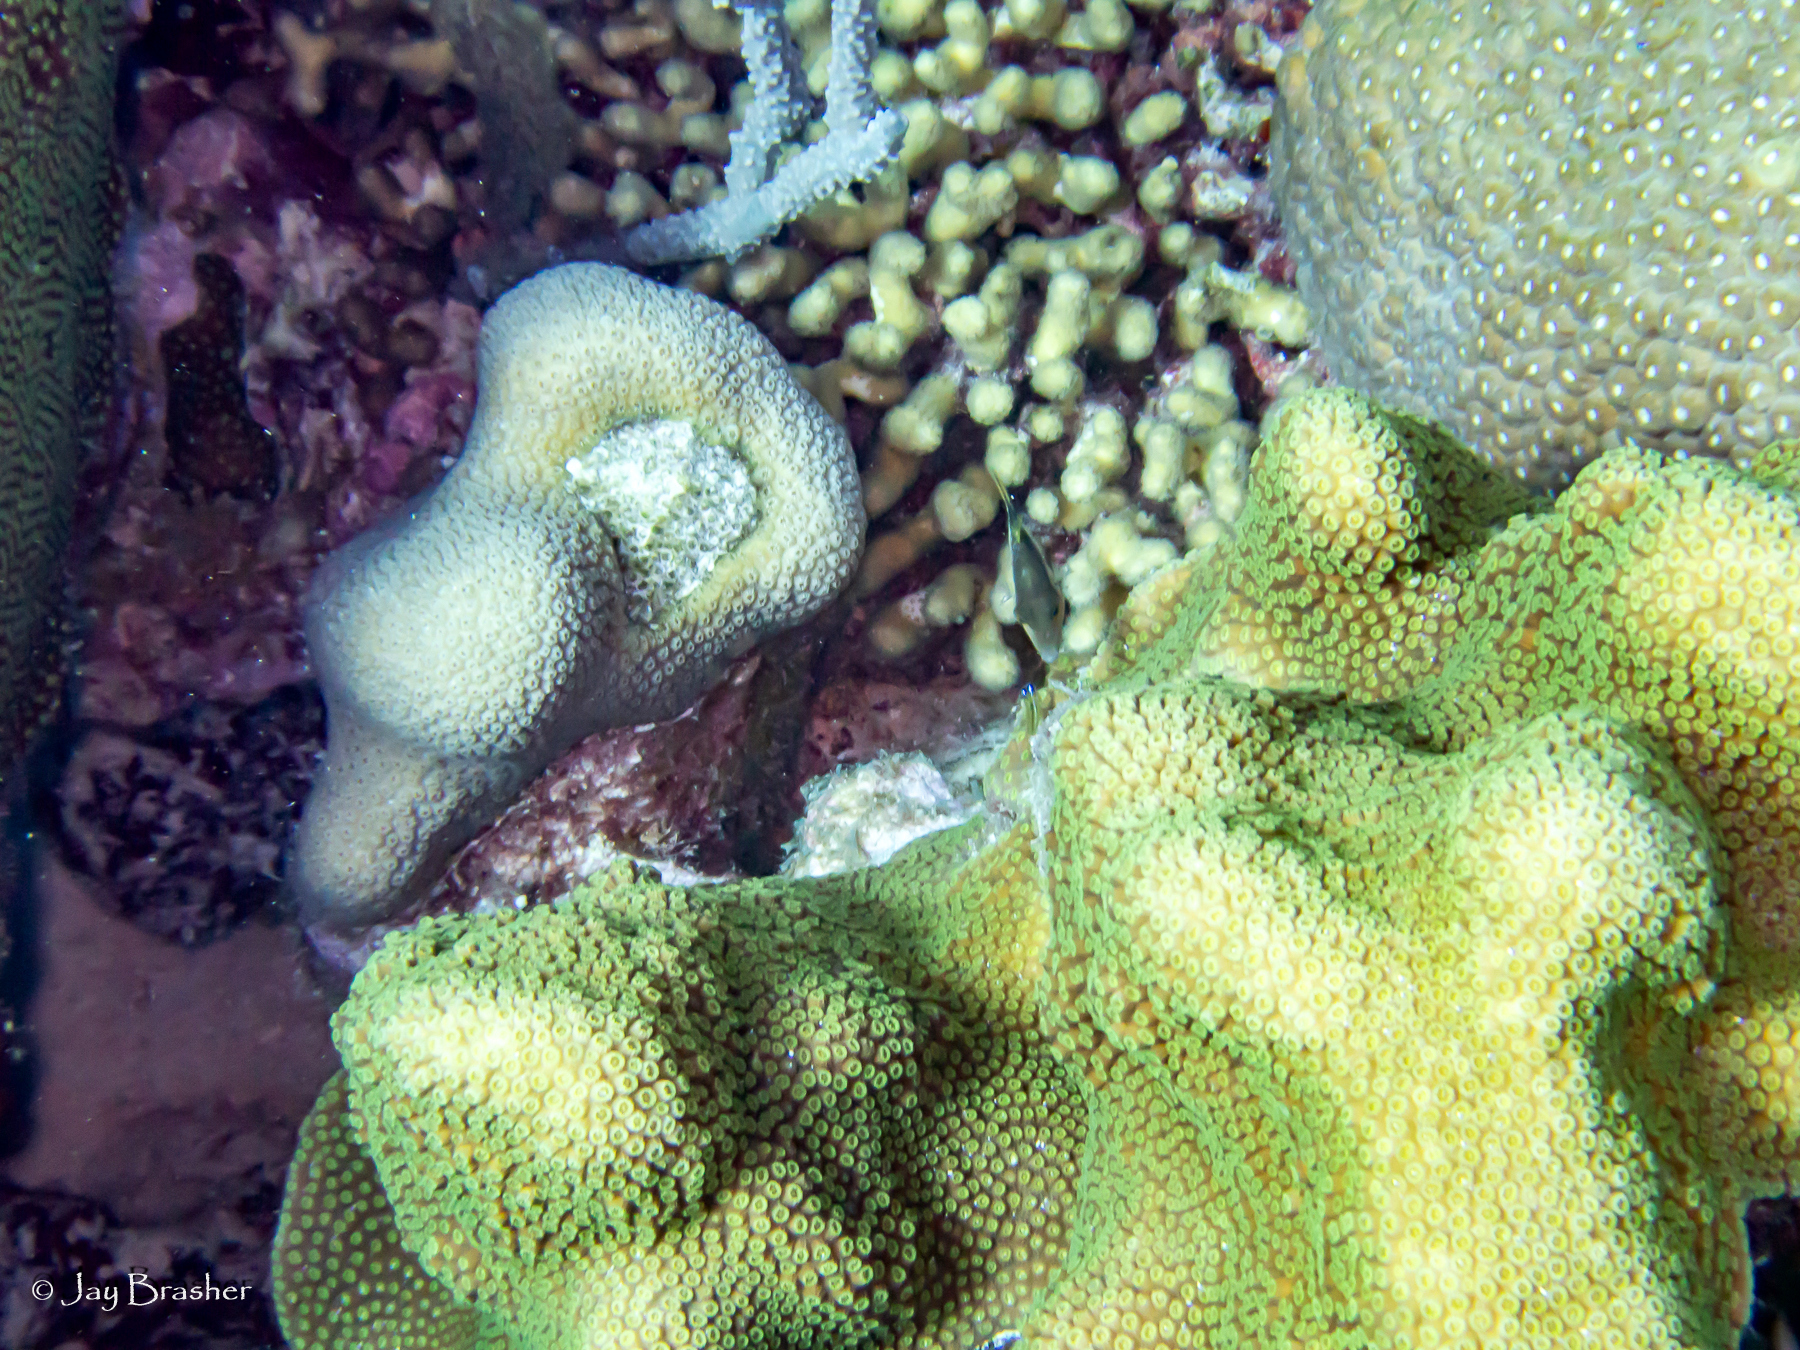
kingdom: Animalia
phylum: Chordata
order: Tetraodontiformes
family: Tetraodontidae
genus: Canthigaster
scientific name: Canthigaster rostrata
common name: Caribbean sharpnose-puffer
